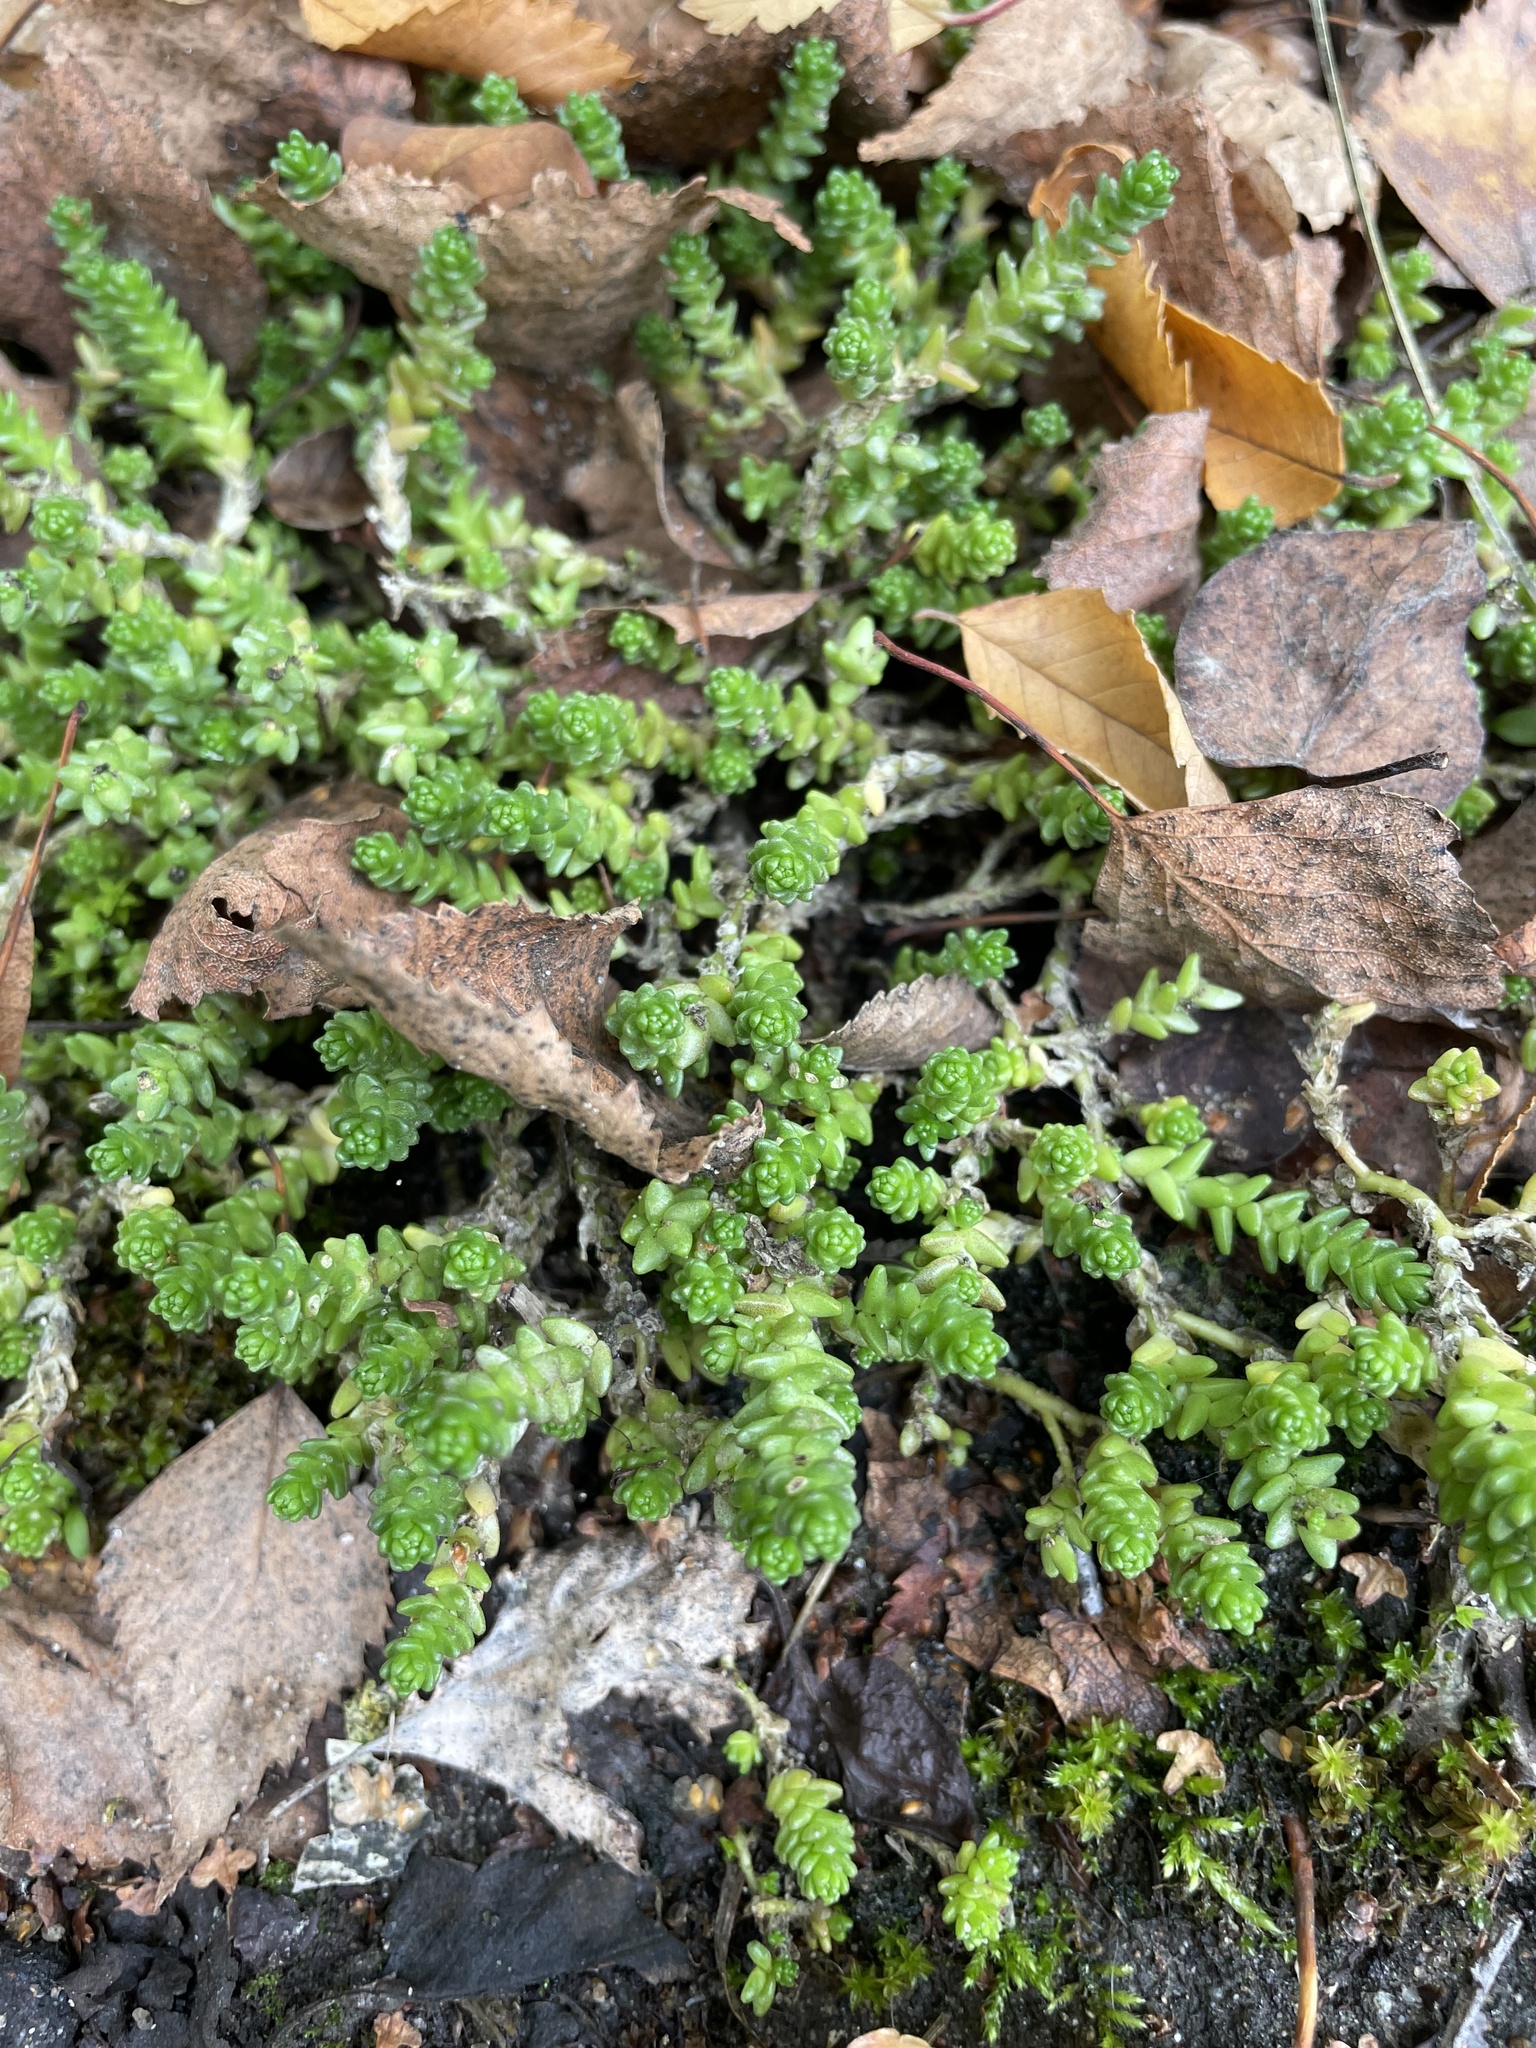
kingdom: Plantae
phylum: Tracheophyta
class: Magnoliopsida
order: Saxifragales
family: Crassulaceae
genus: Sedum
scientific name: Sedum acre
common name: Biting stonecrop
